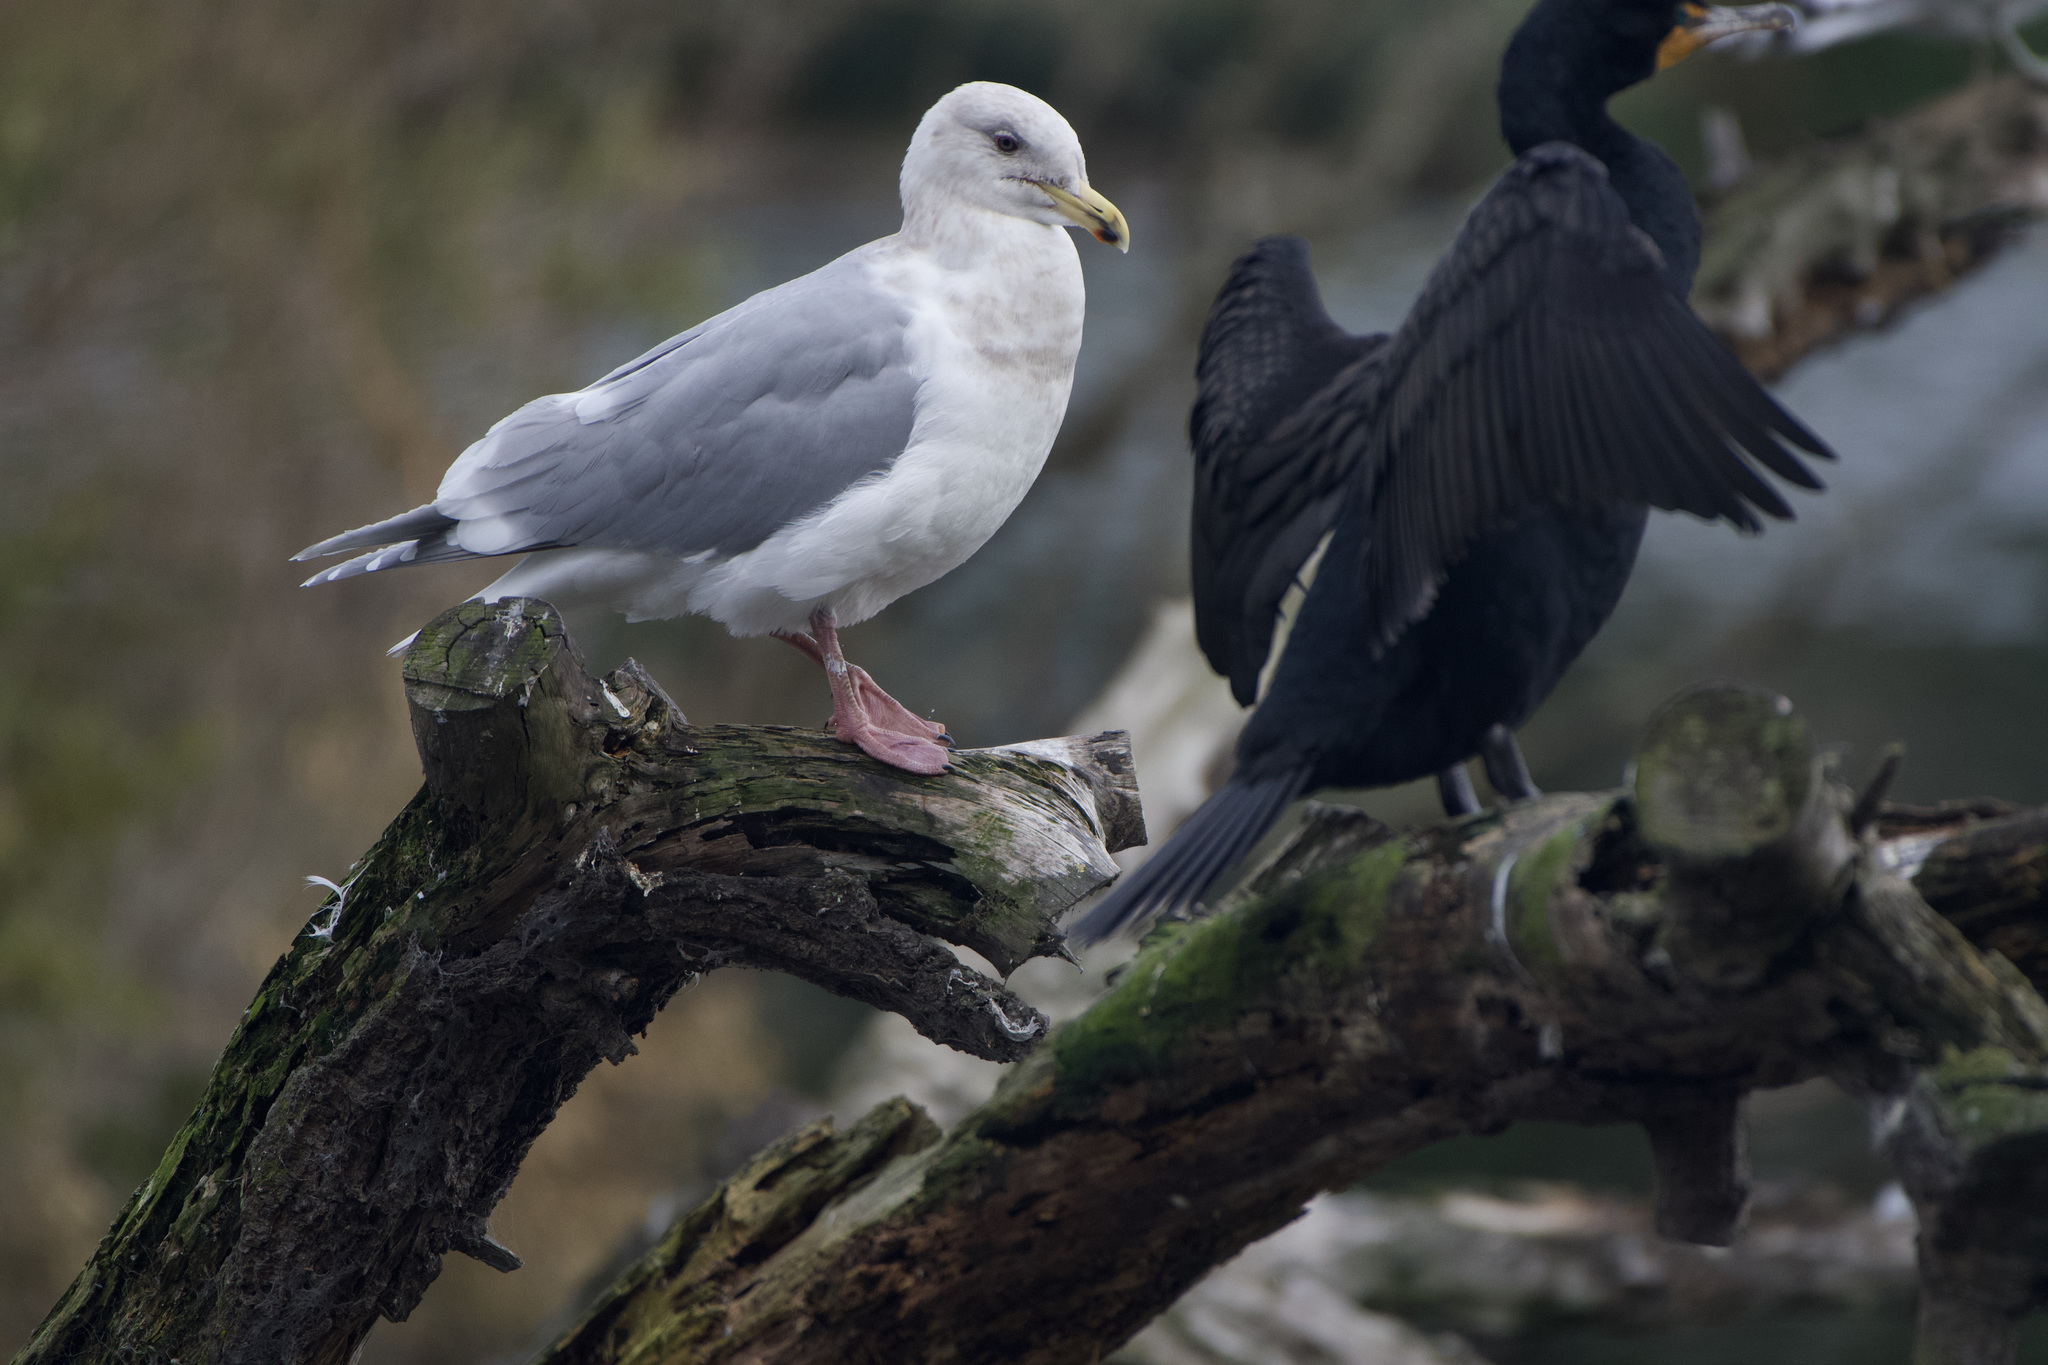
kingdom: Animalia
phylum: Chordata
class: Aves
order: Charadriiformes
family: Laridae
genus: Larus
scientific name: Larus
